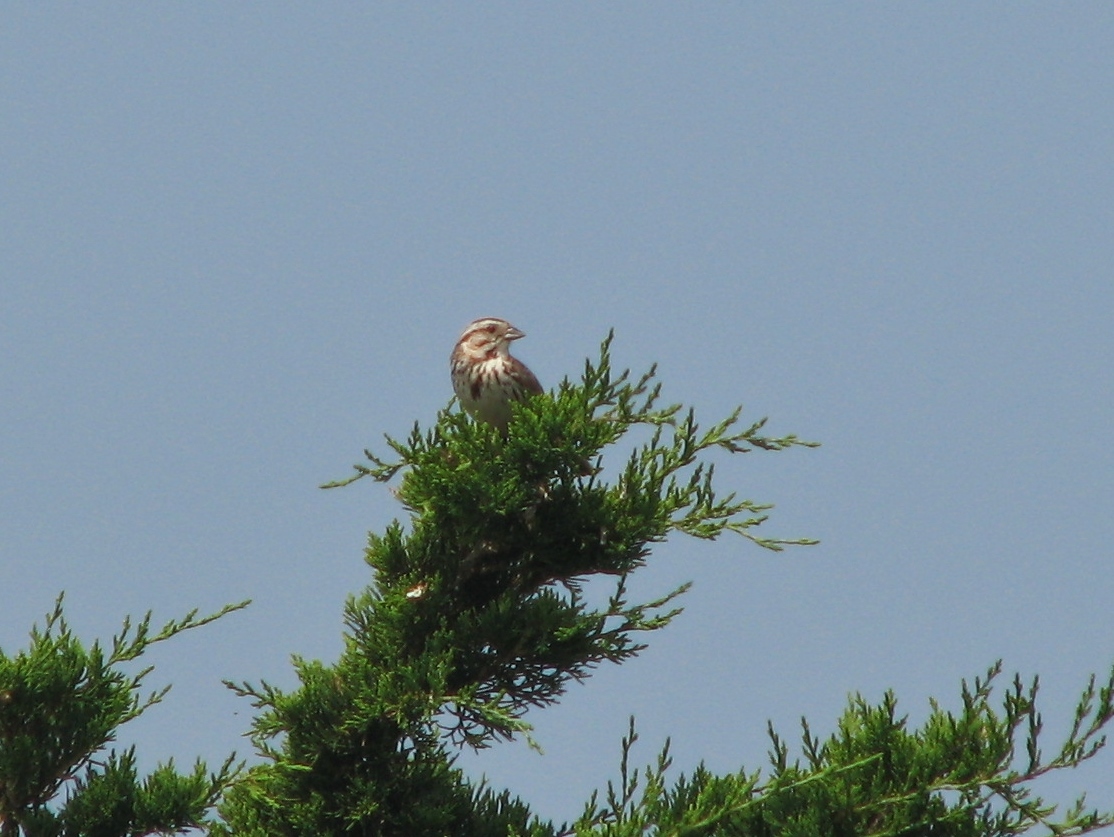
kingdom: Animalia
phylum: Chordata
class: Aves
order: Passeriformes
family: Passerellidae
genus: Melospiza
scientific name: Melospiza melodia
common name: Song sparrow
